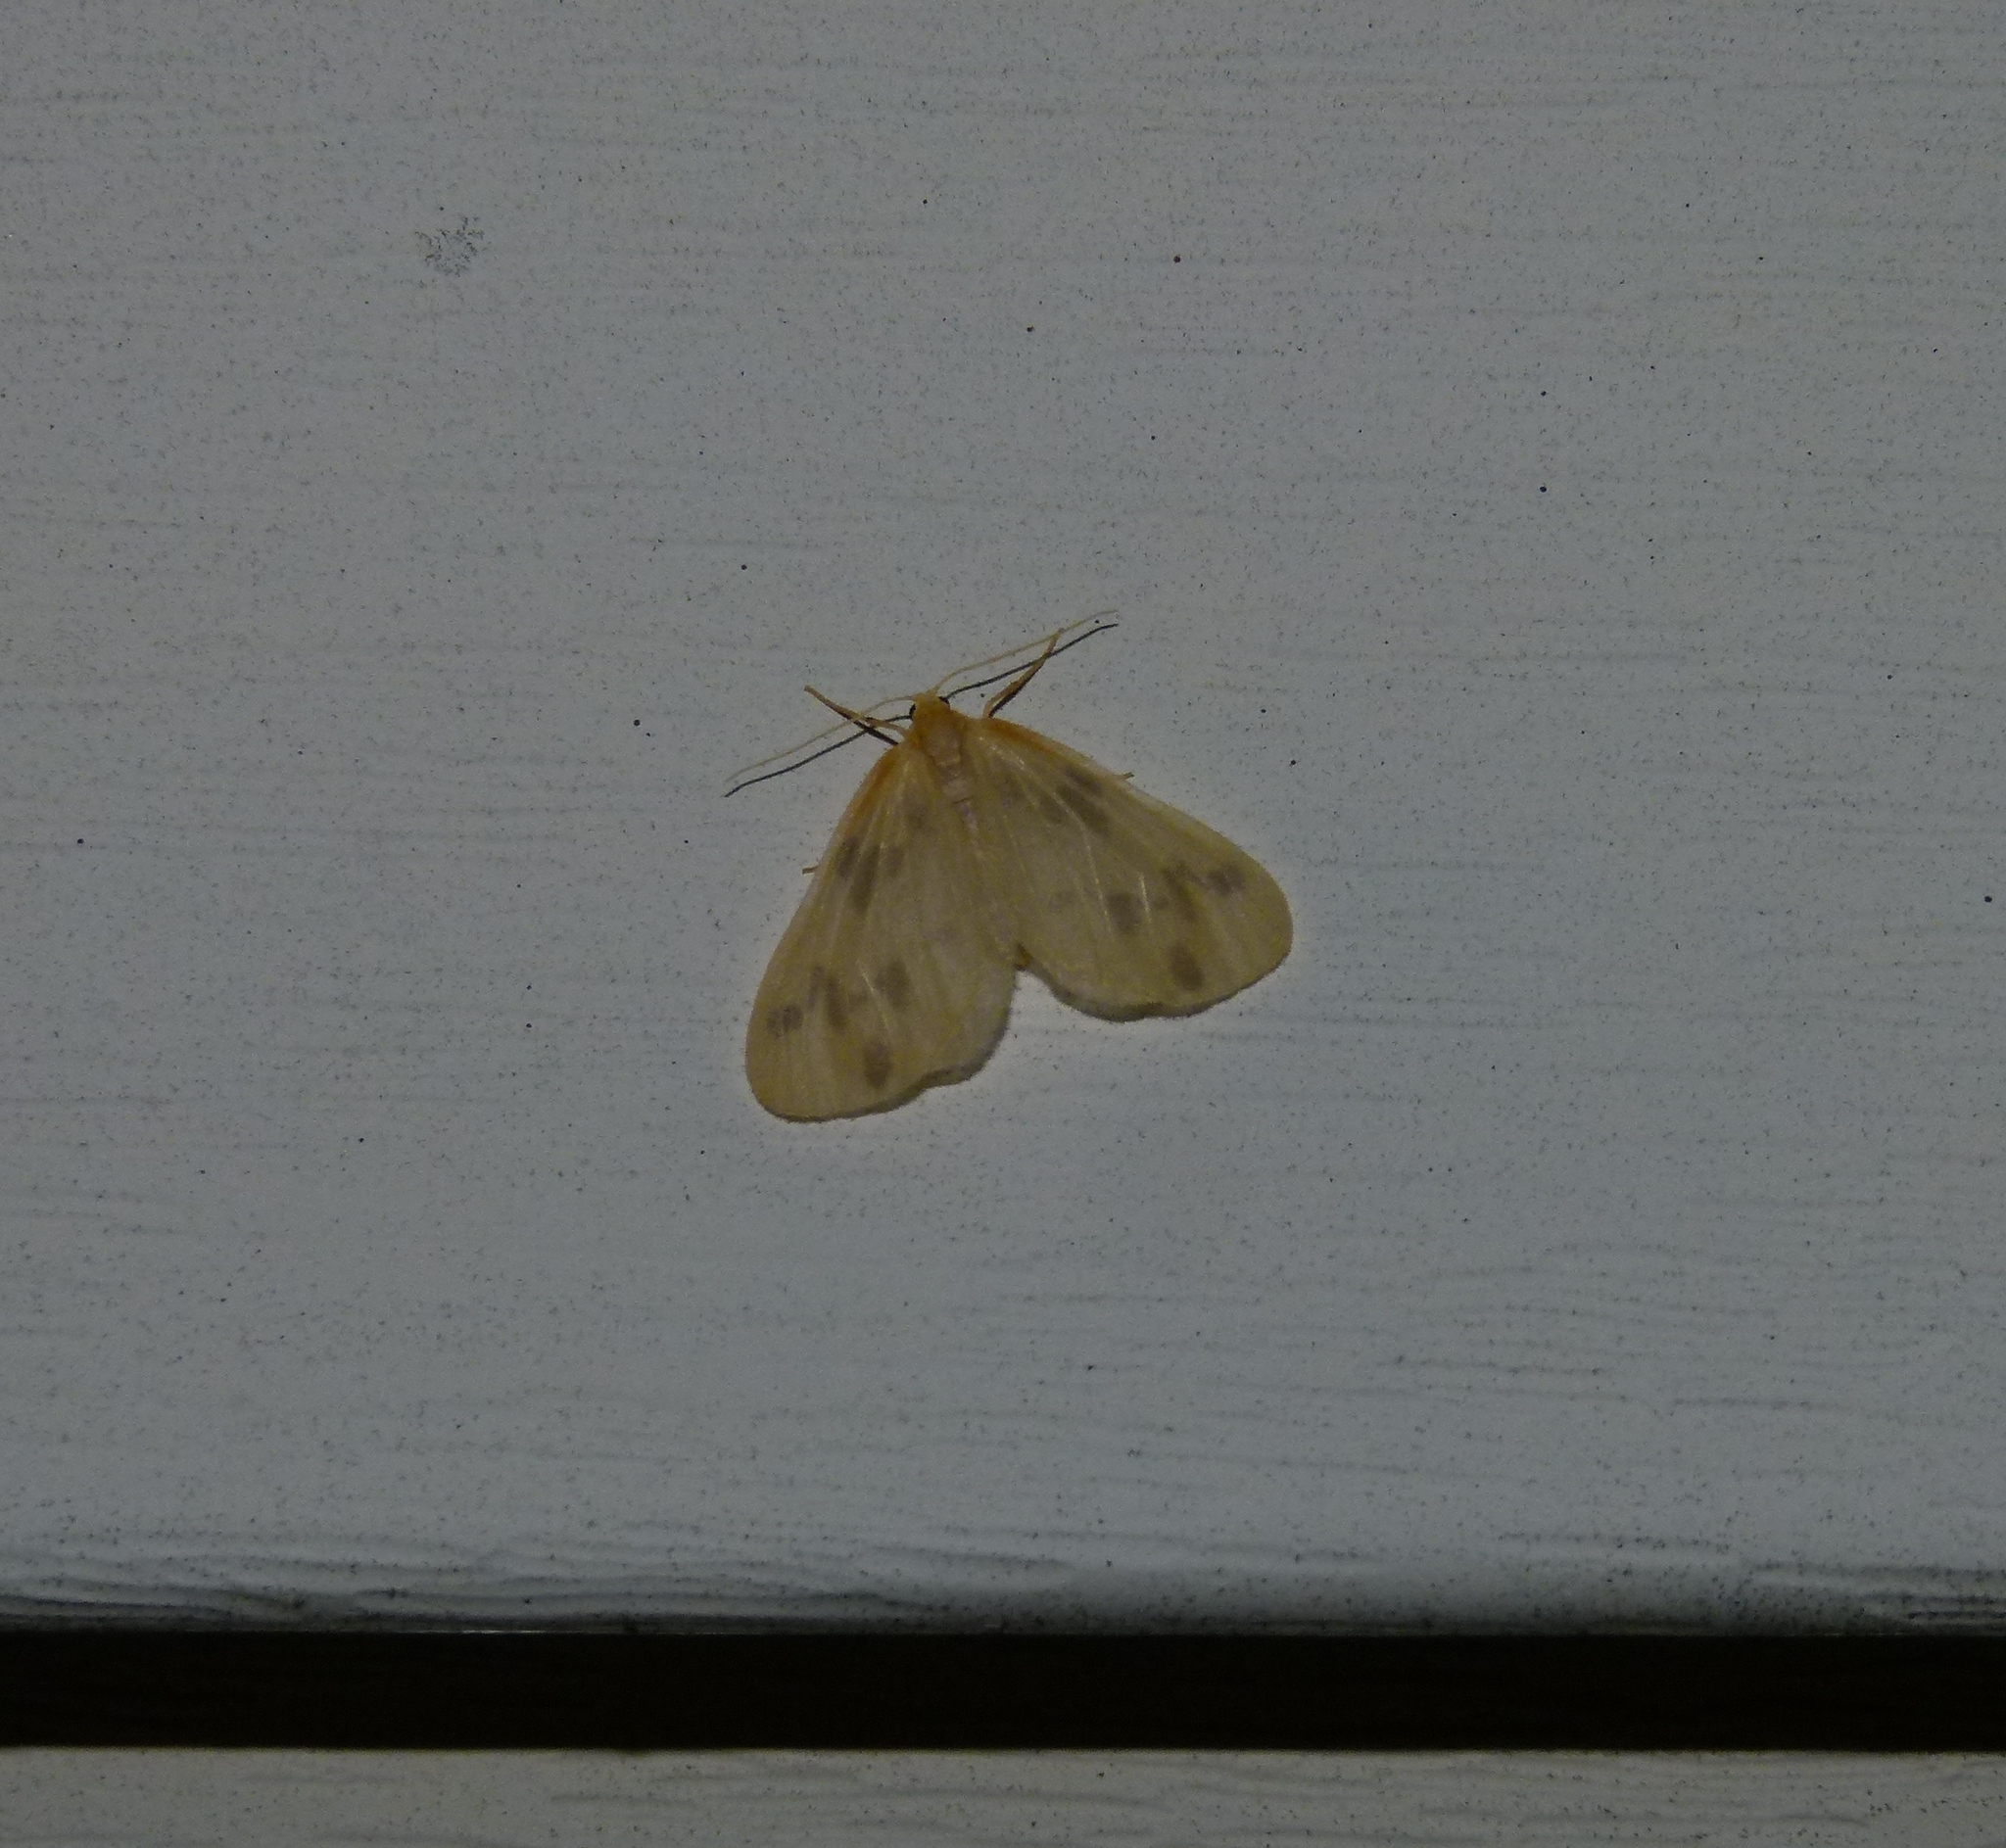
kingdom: Animalia
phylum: Arthropoda
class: Insecta
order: Lepidoptera
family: Geometridae
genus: Eubaphe
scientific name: Eubaphe mendica
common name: Beggar
